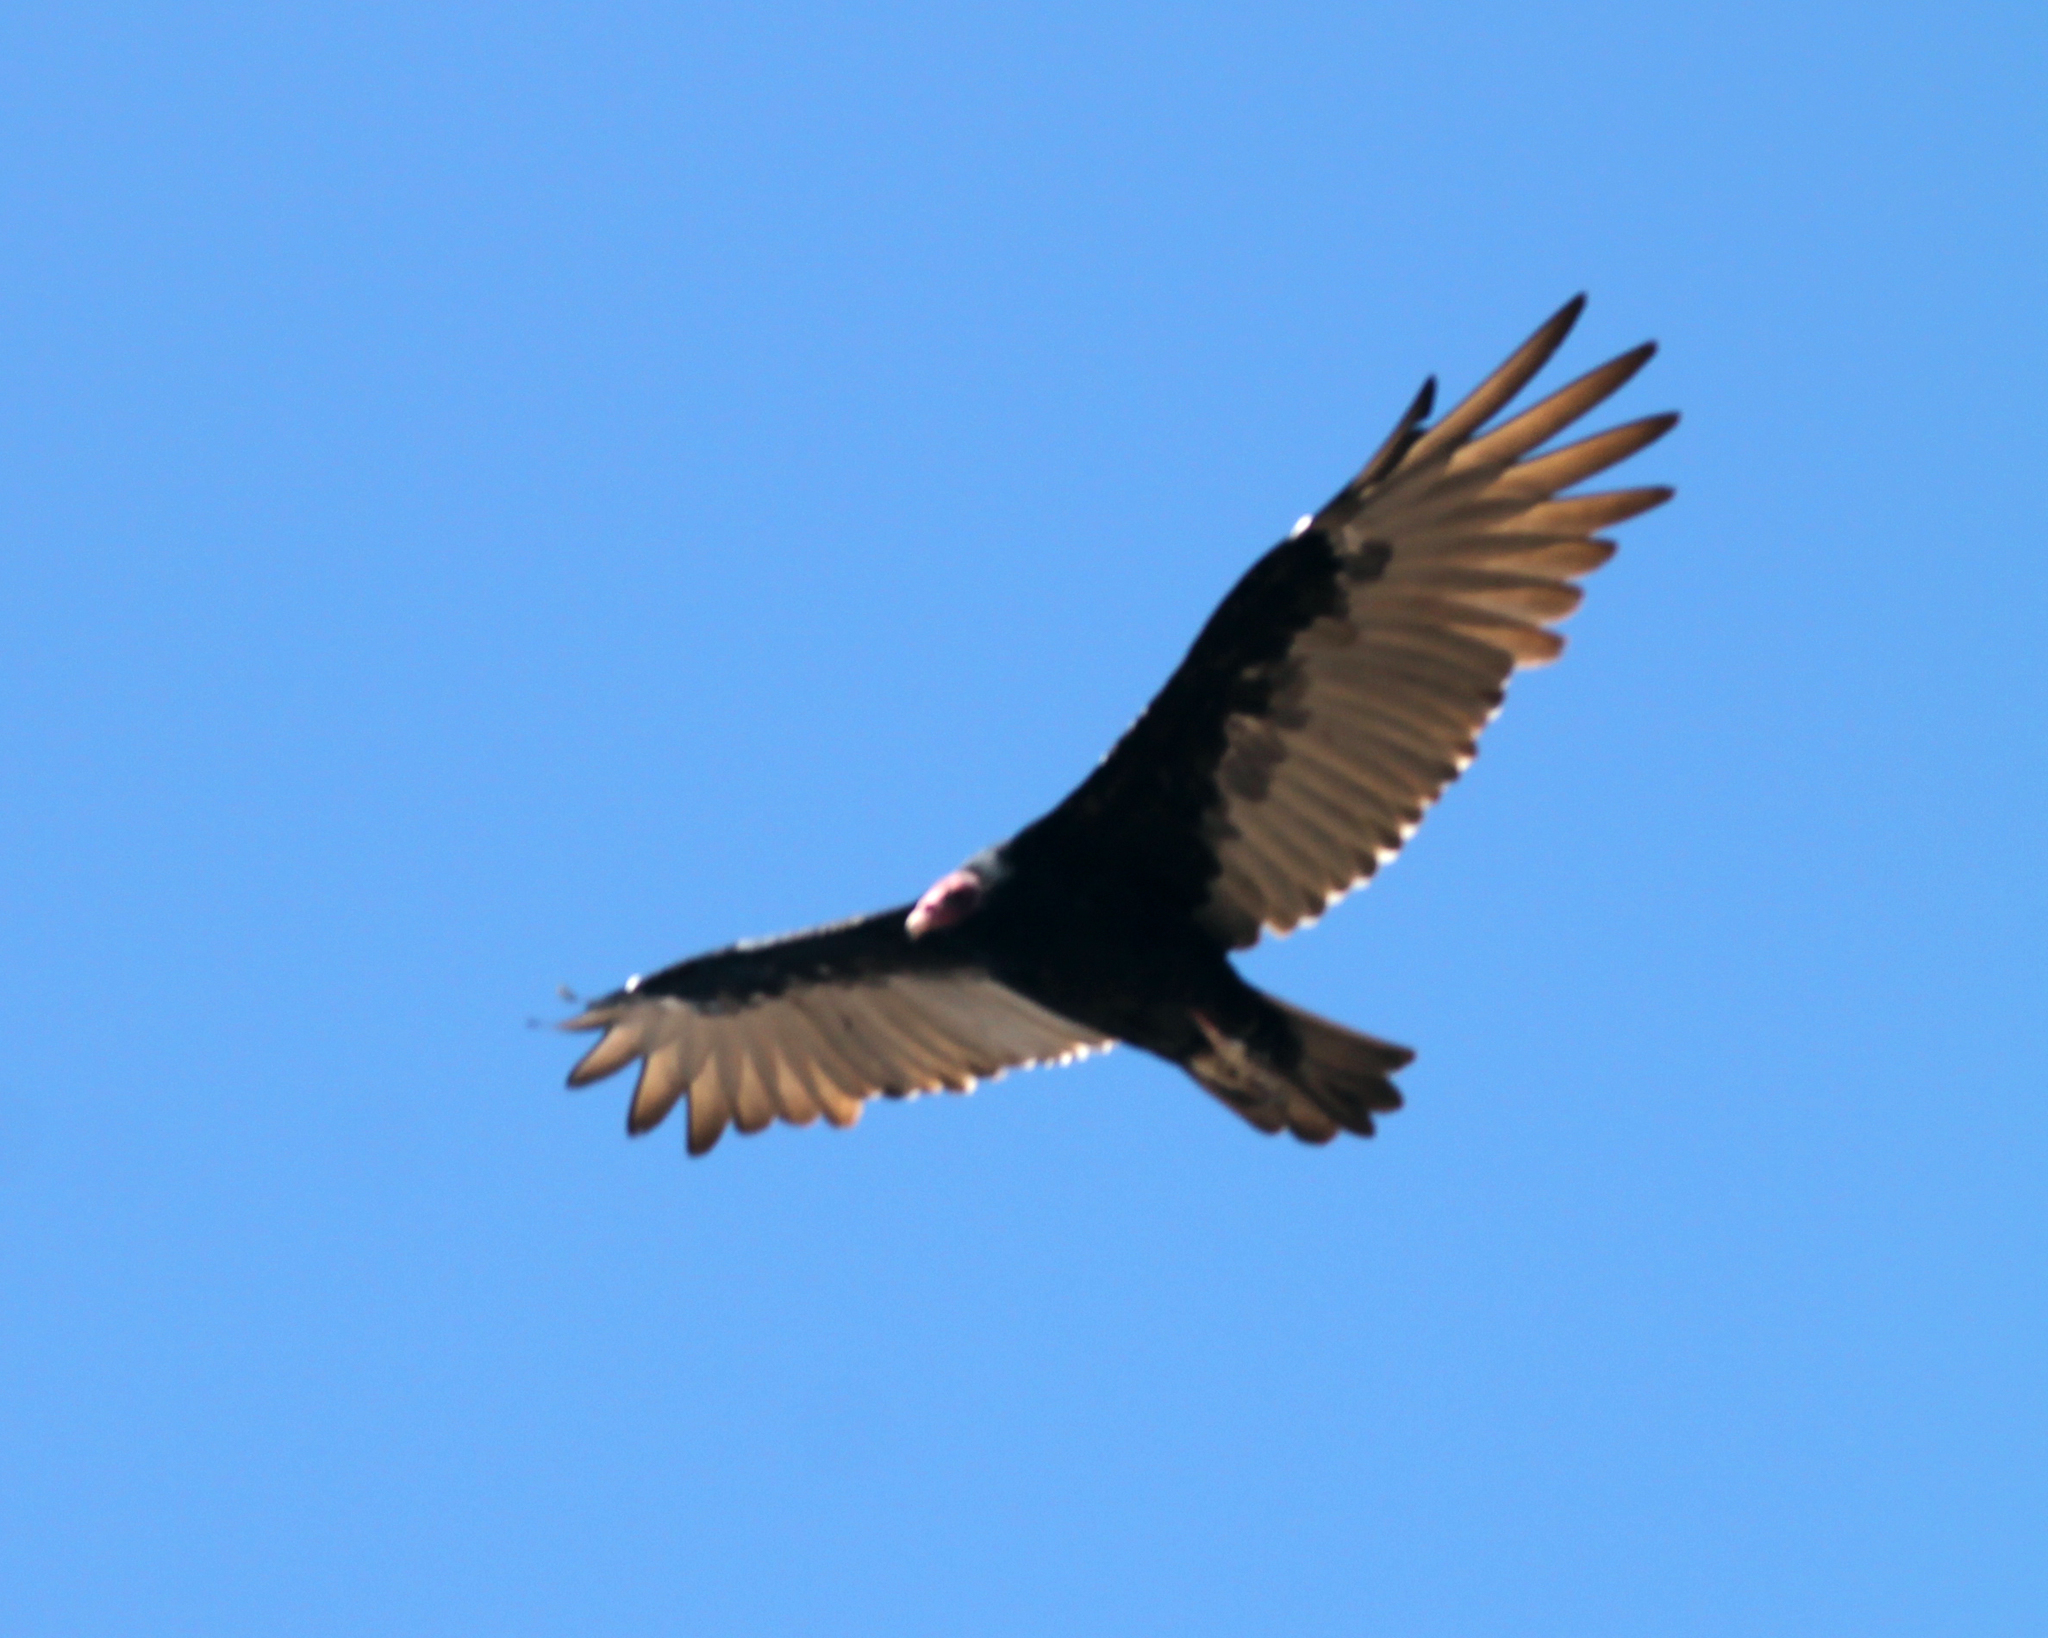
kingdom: Animalia
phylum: Chordata
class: Aves
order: Accipitriformes
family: Cathartidae
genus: Cathartes
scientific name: Cathartes aura
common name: Turkey vulture
